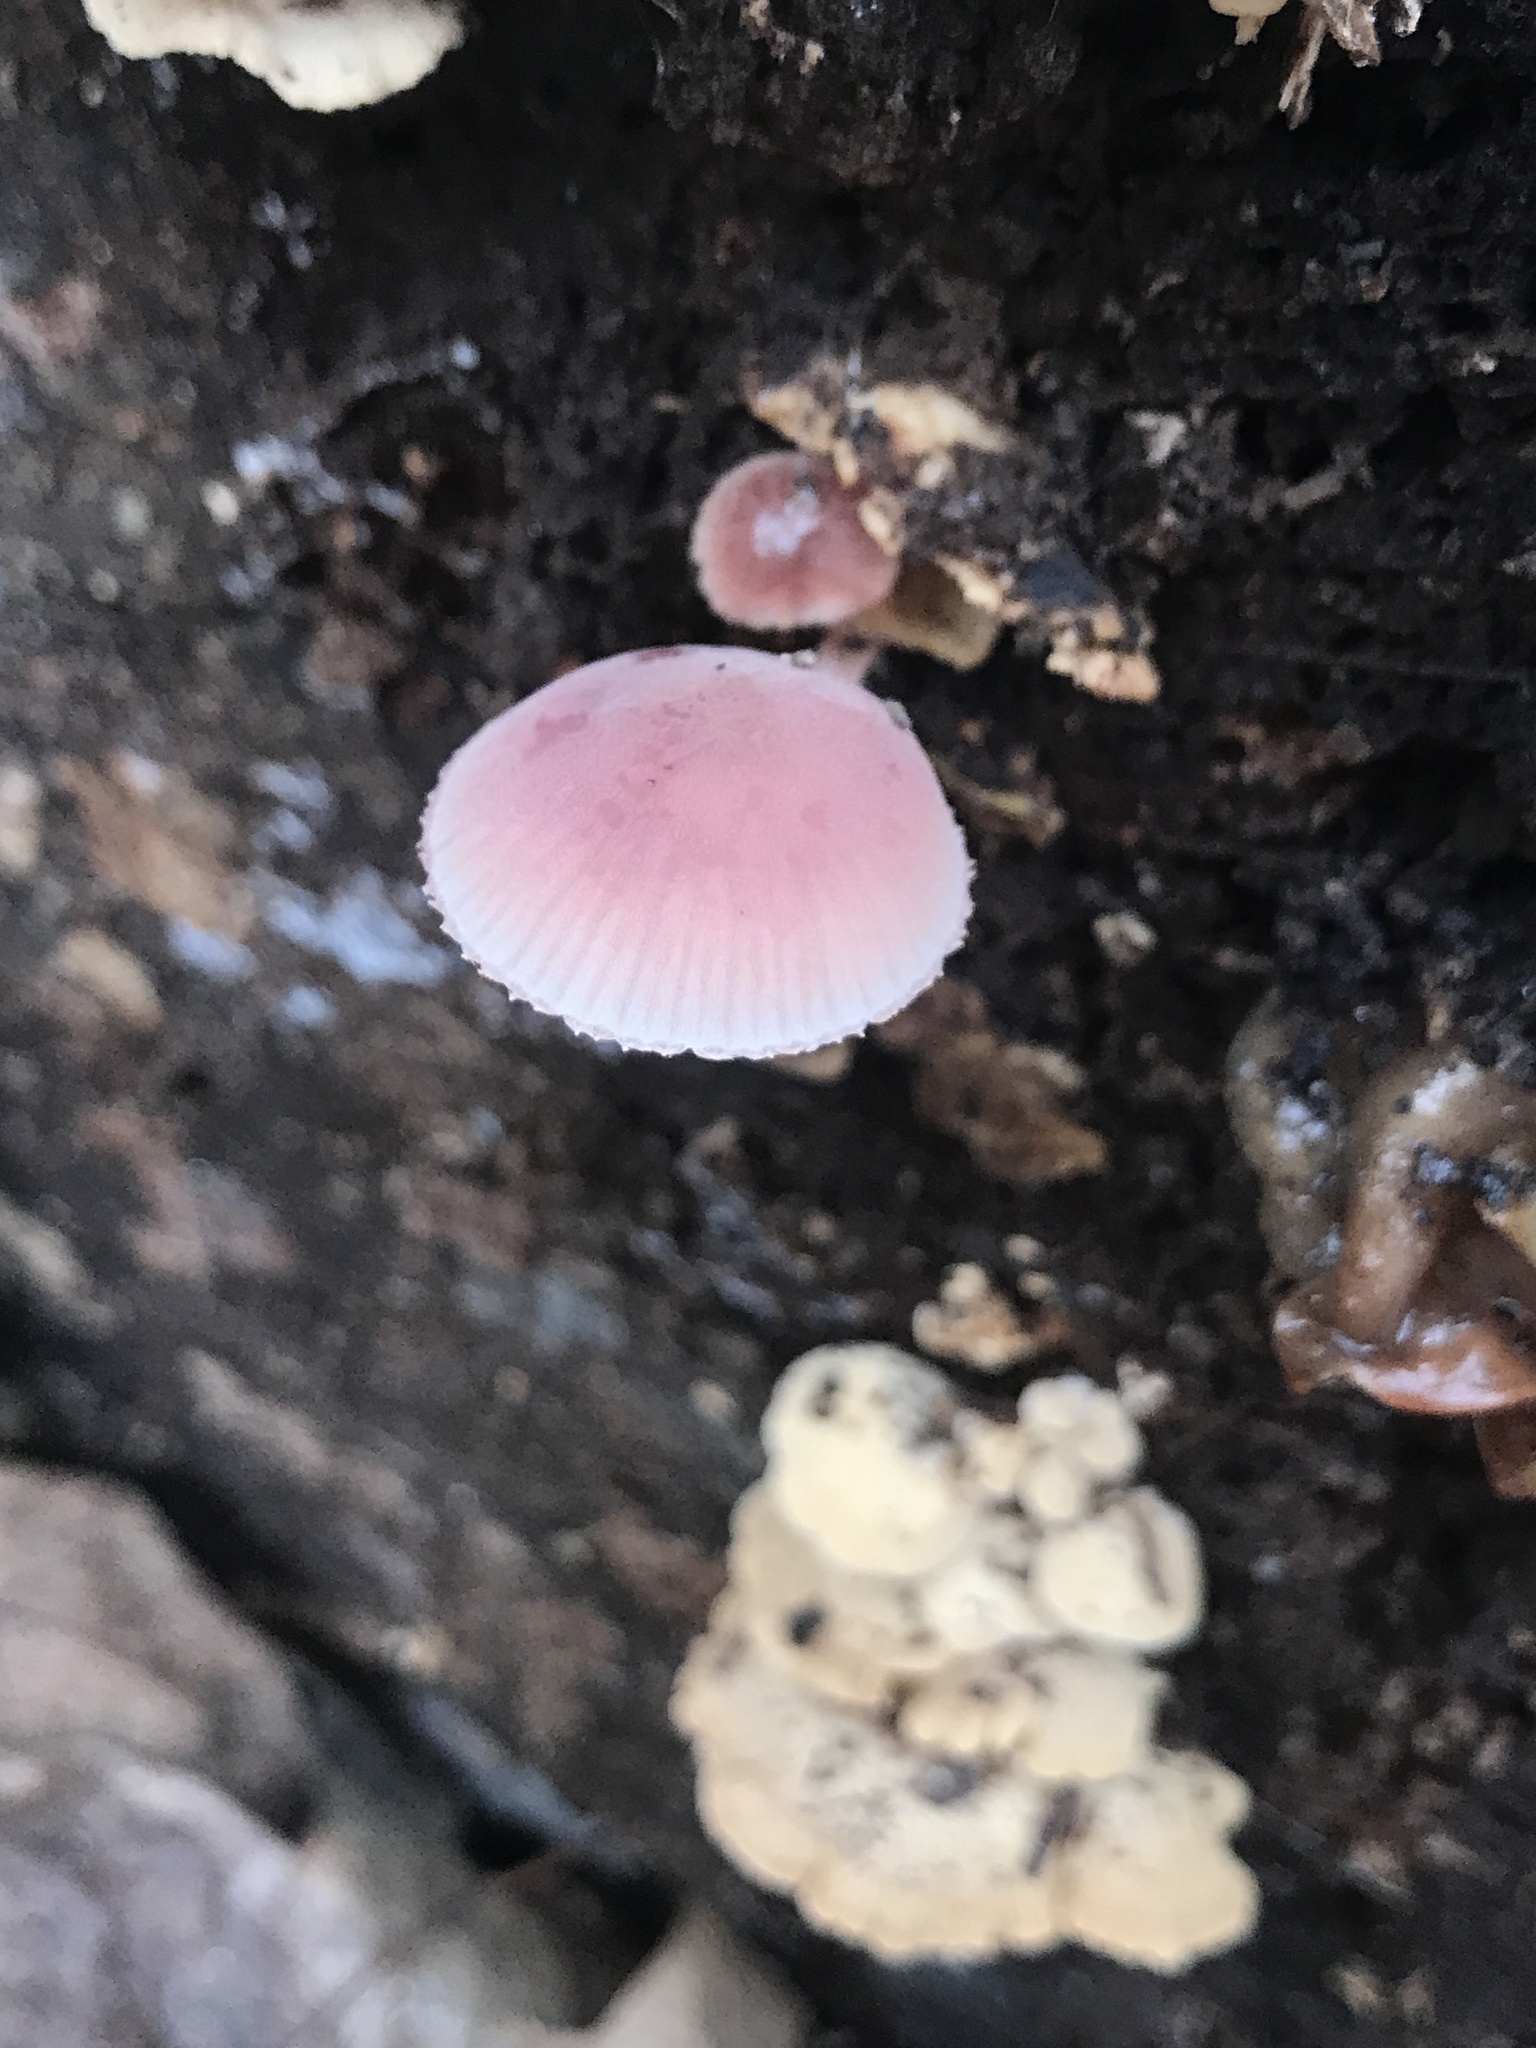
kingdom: Fungi
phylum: Basidiomycota
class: Agaricomycetes
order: Agaricales
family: Mycenaceae
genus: Mycena
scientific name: Mycena haematopus
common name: Burgundydrop bonnet
